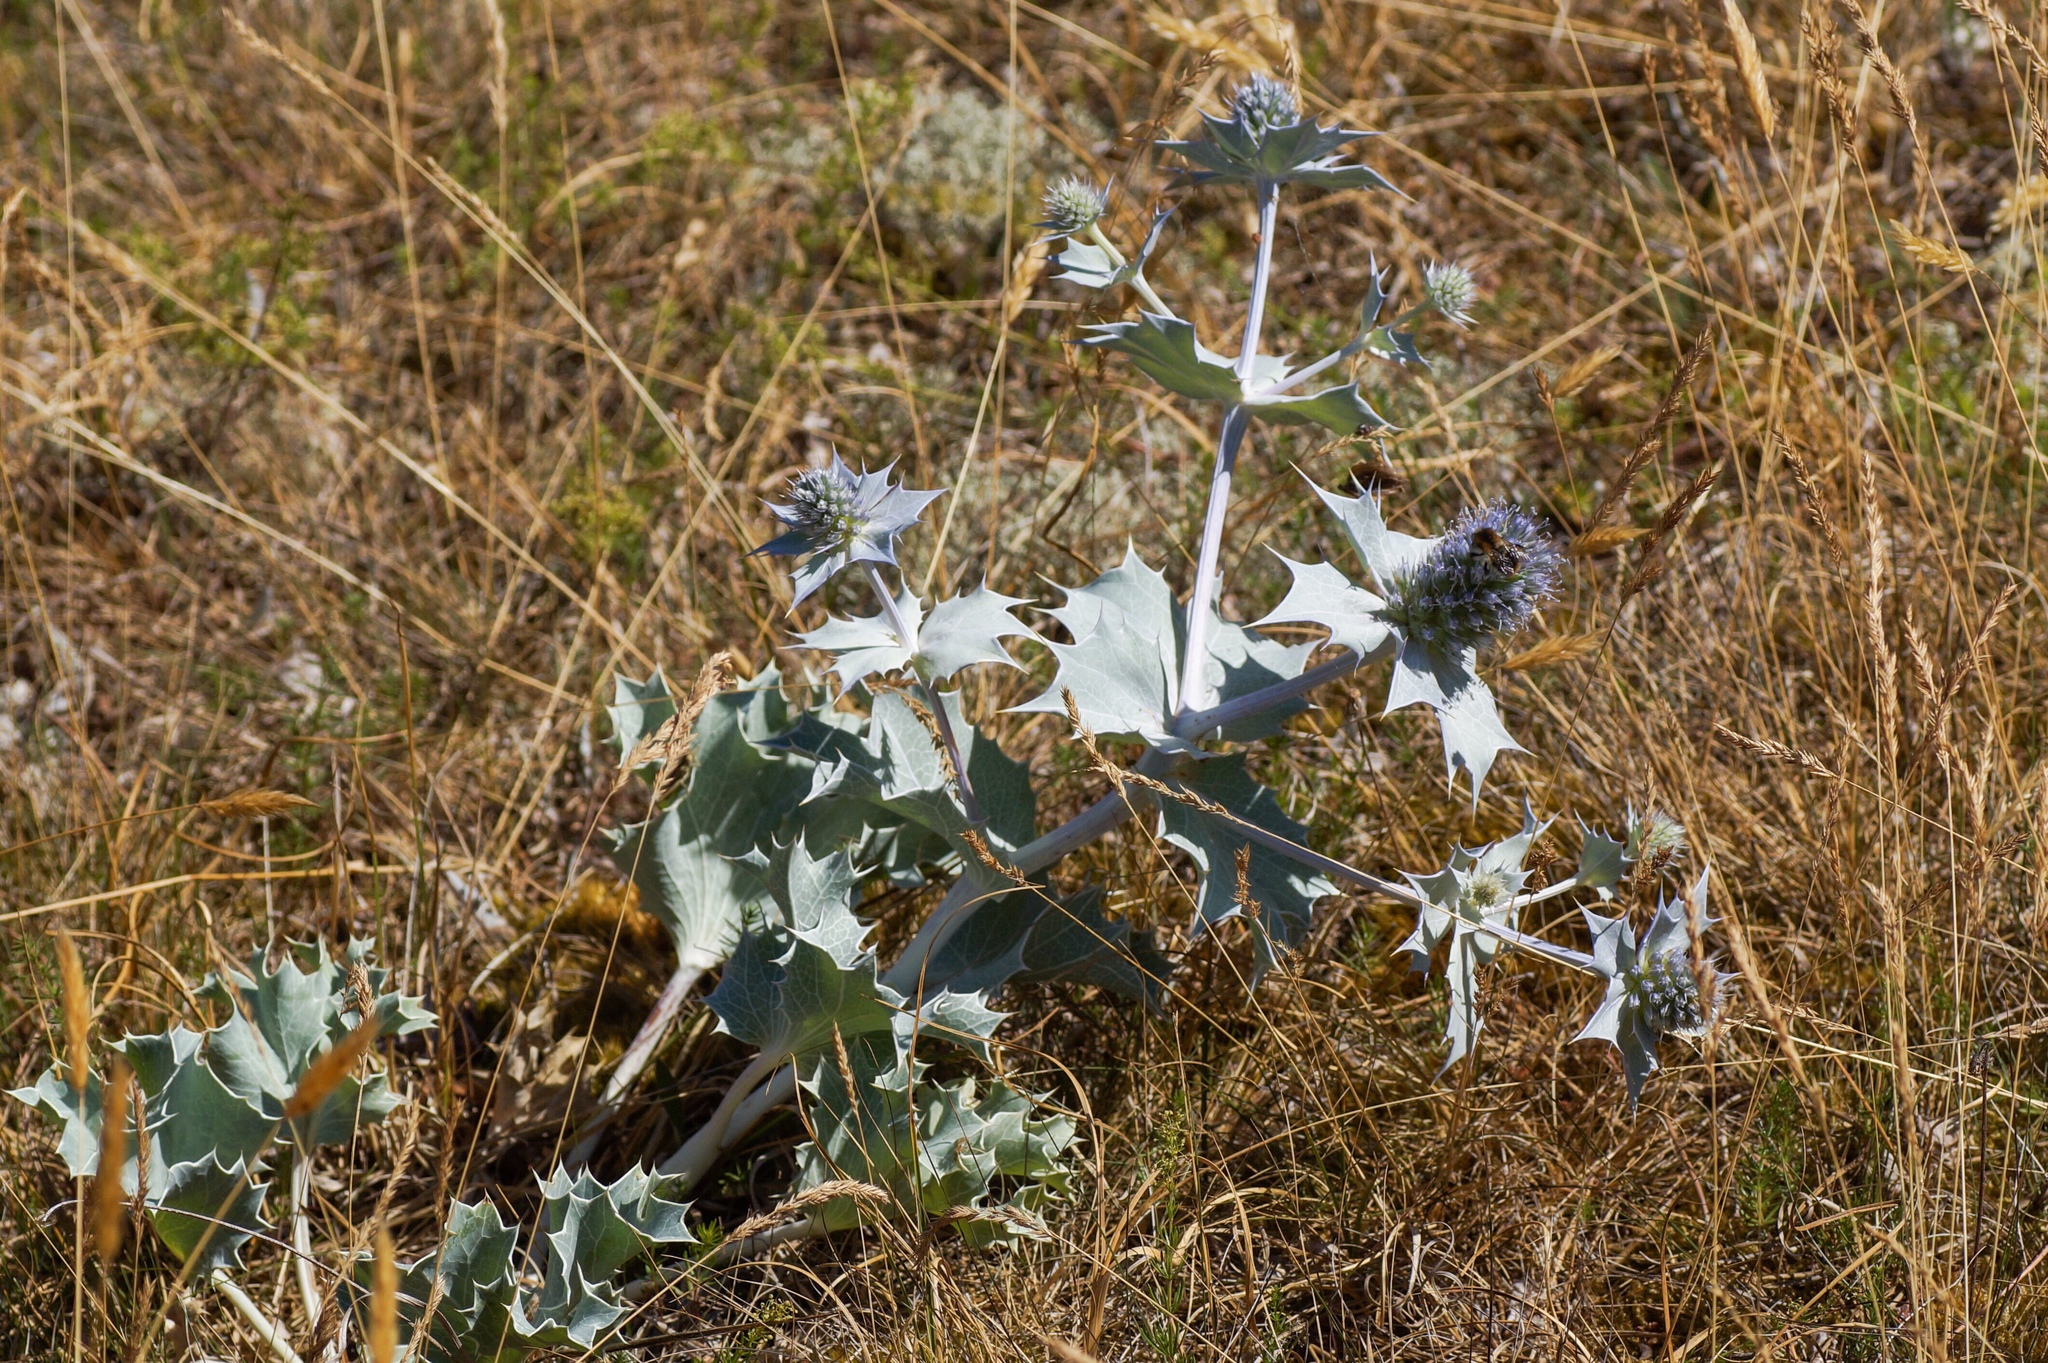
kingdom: Plantae
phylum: Tracheophyta
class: Magnoliopsida
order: Apiales
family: Apiaceae
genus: Eryngium
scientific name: Eryngium maritimum
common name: Sea-holly
